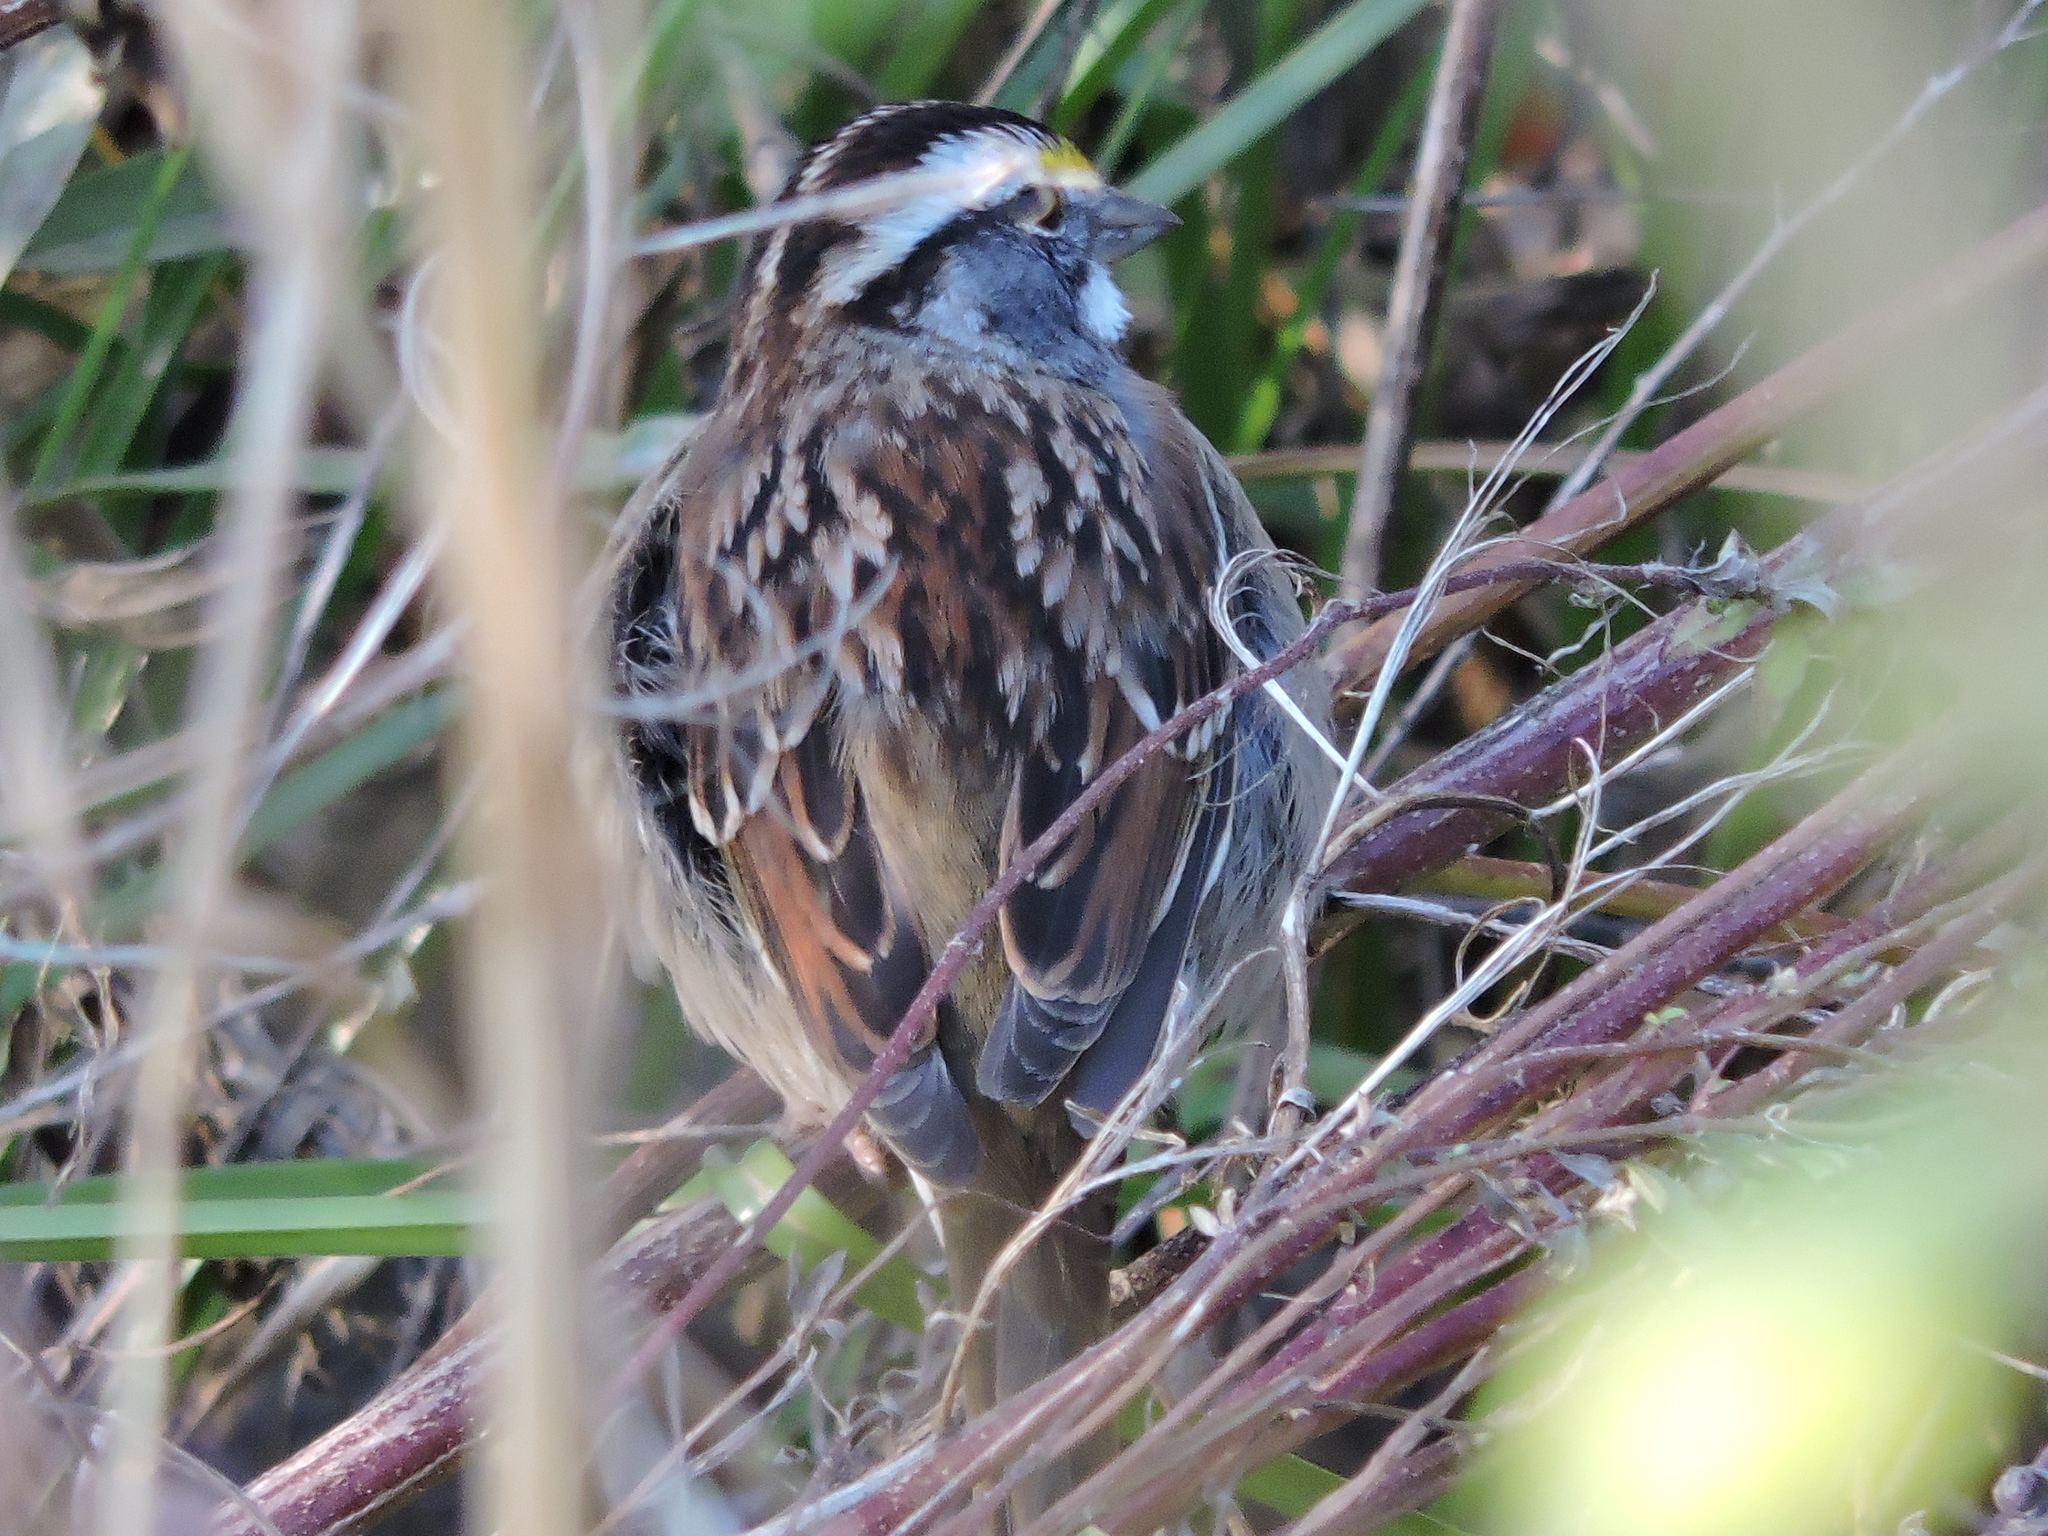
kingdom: Animalia
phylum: Chordata
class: Aves
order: Passeriformes
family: Passerellidae
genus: Zonotrichia
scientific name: Zonotrichia albicollis
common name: White-throated sparrow
